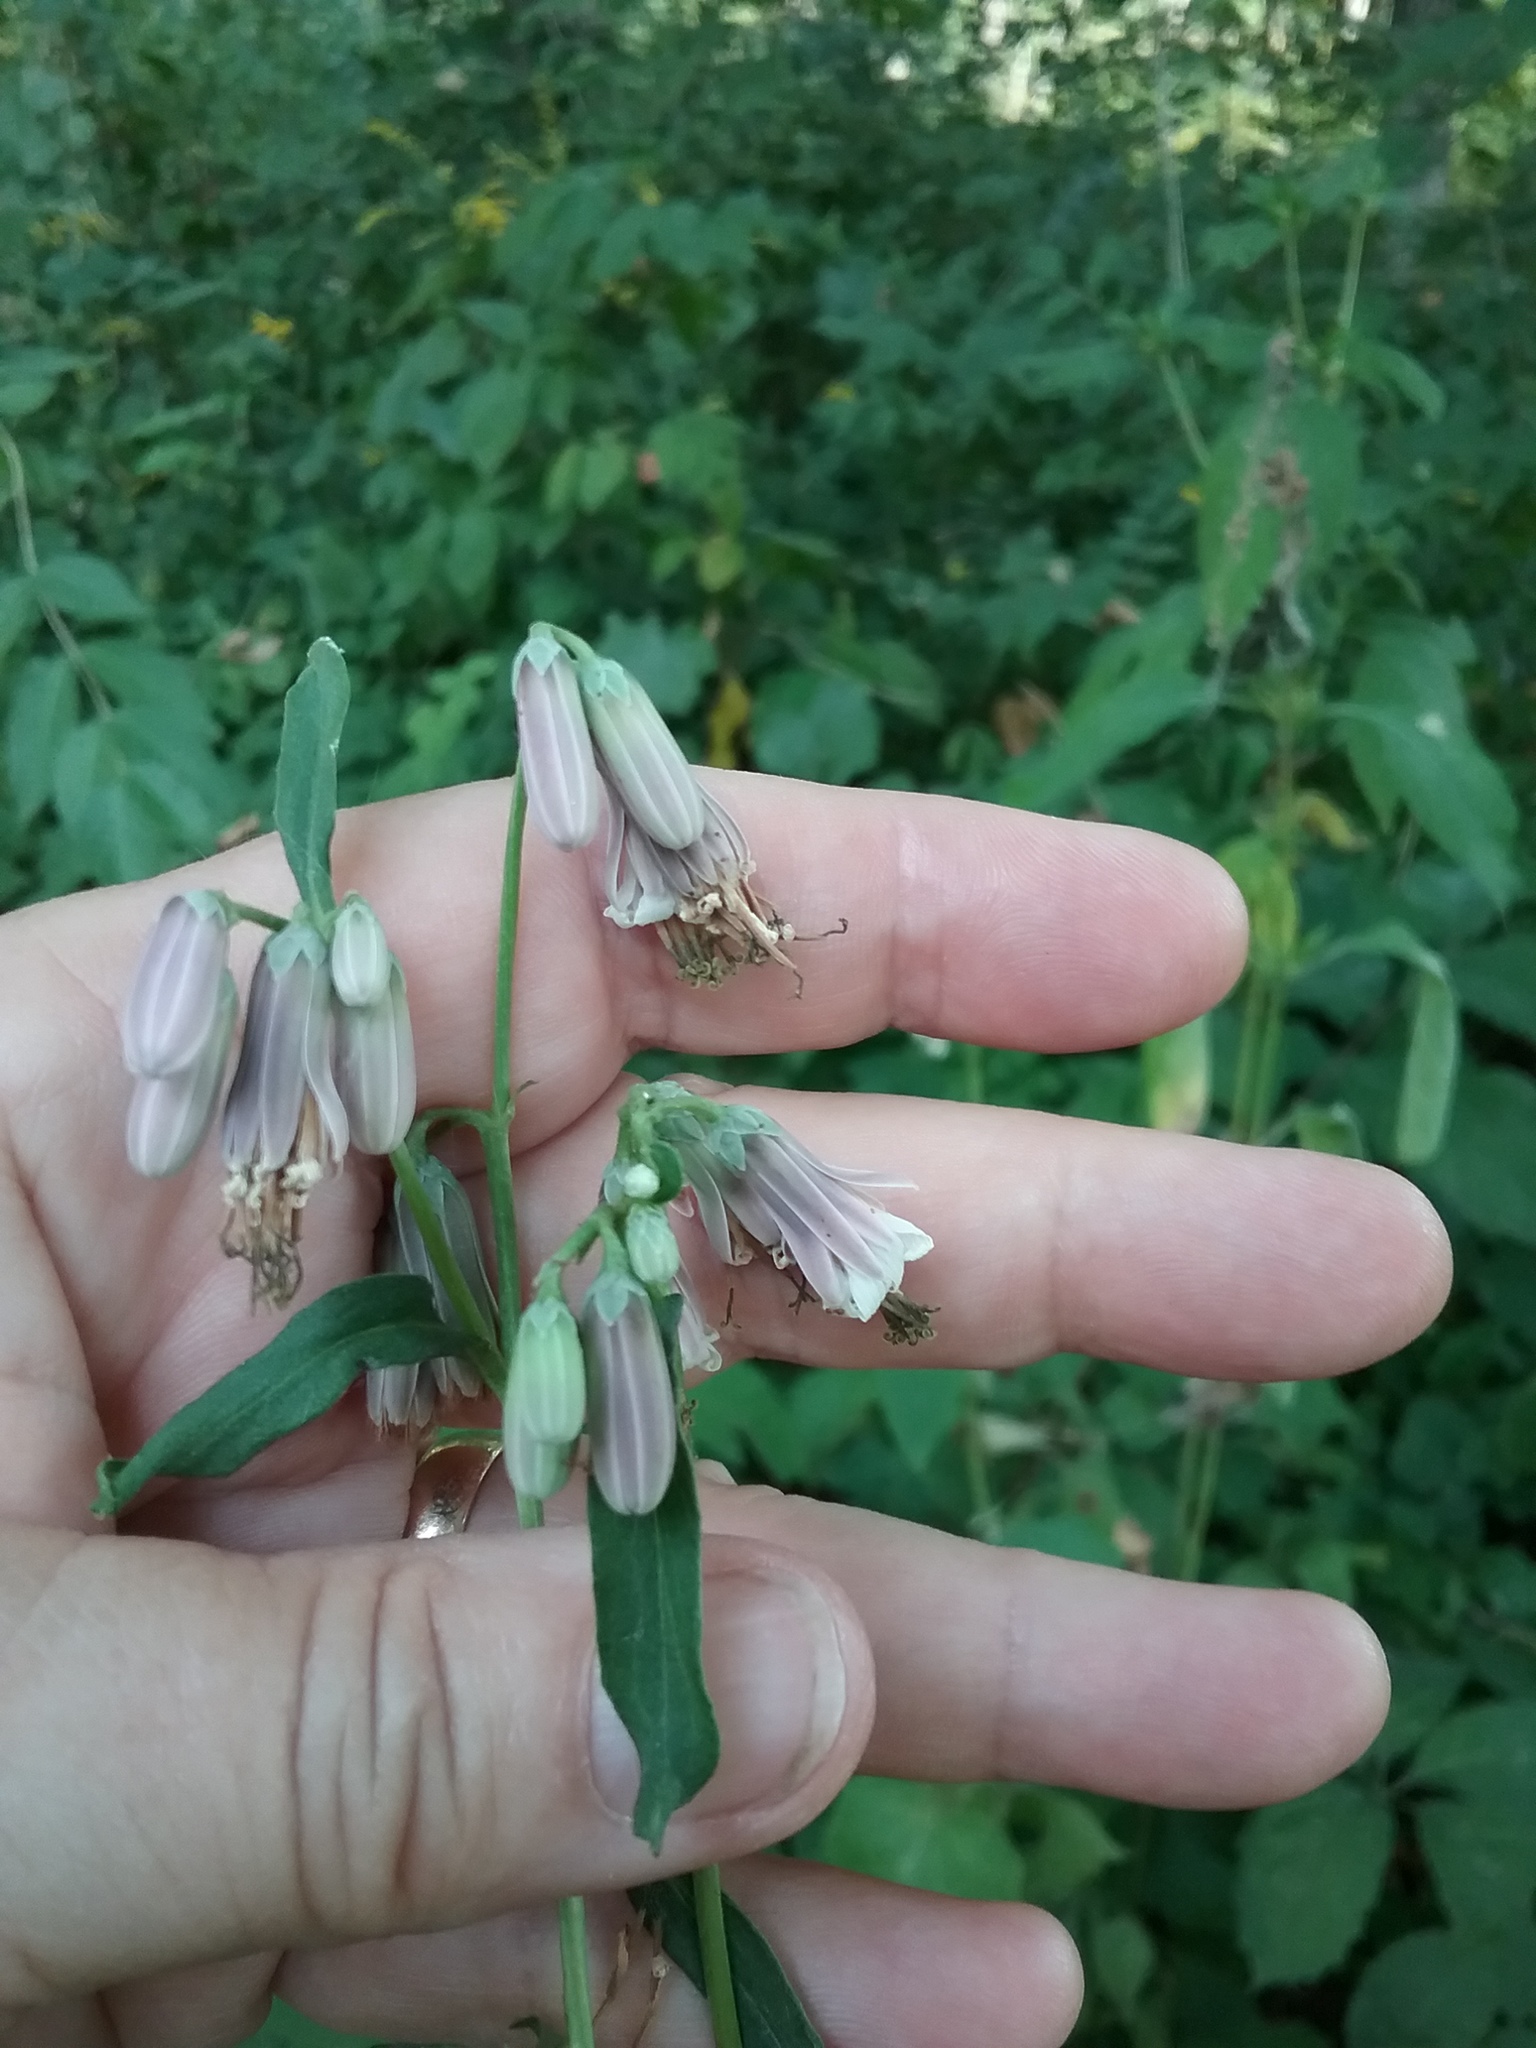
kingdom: Plantae
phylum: Tracheophyta
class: Magnoliopsida
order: Asterales
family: Asteraceae
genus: Nabalus
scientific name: Nabalus albus
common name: White rattlesnakeroot
